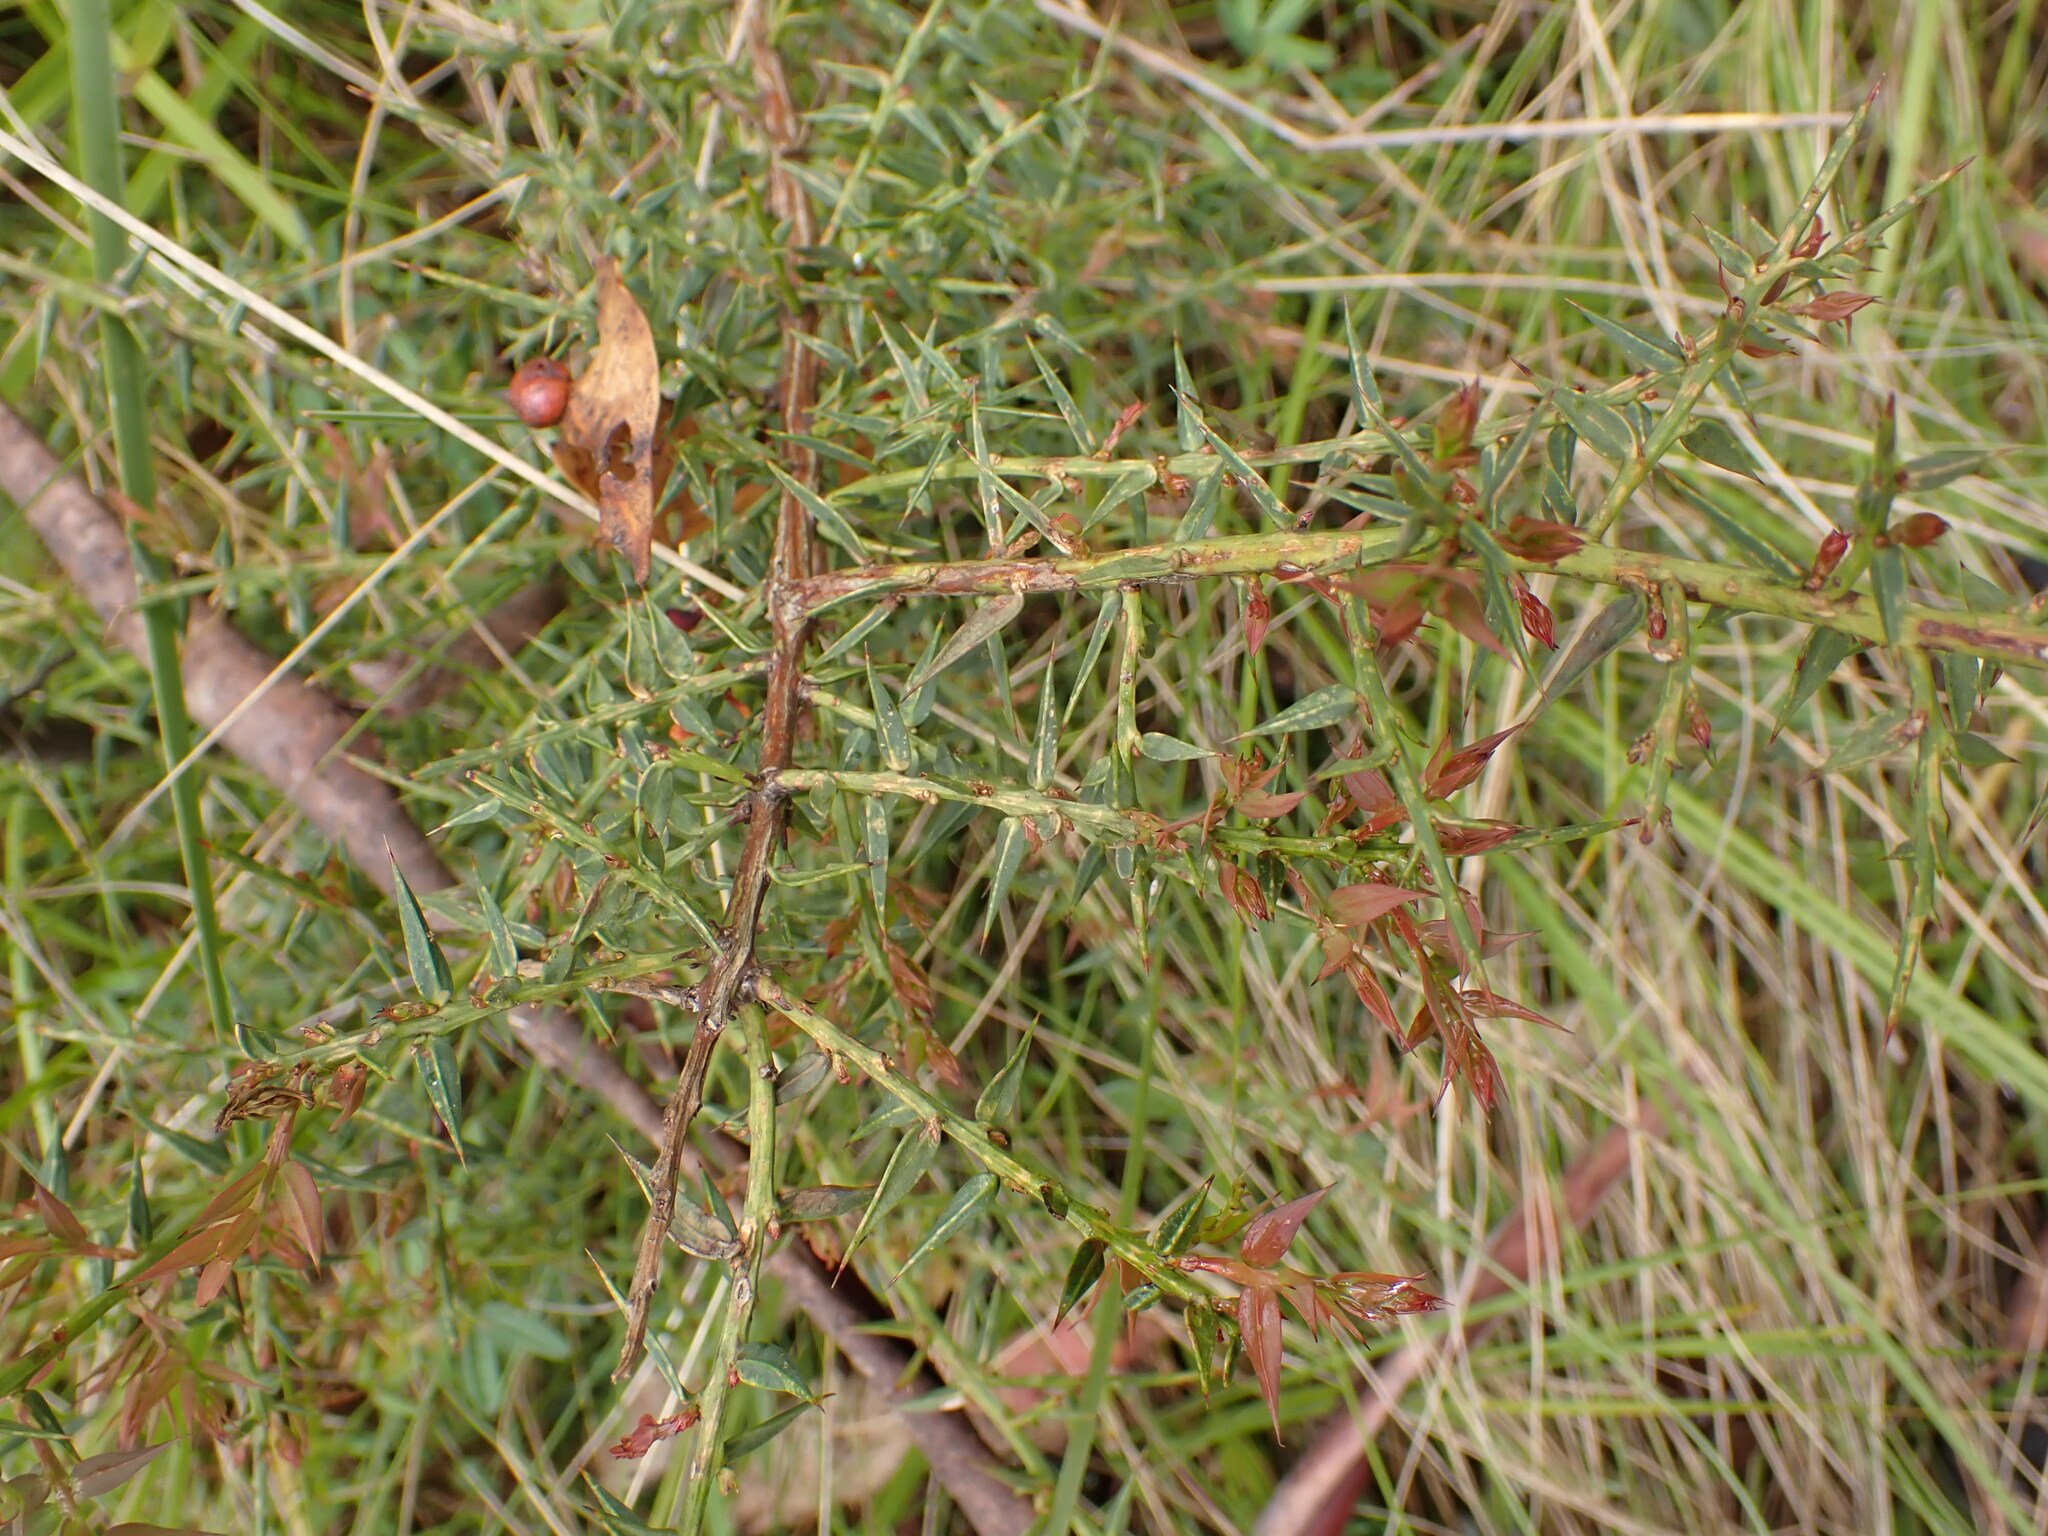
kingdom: Plantae
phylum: Tracheophyta
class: Magnoliopsida
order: Fabales
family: Fabaceae
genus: Daviesia
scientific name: Daviesia ulicifolia
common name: Gorse bitter-pea
